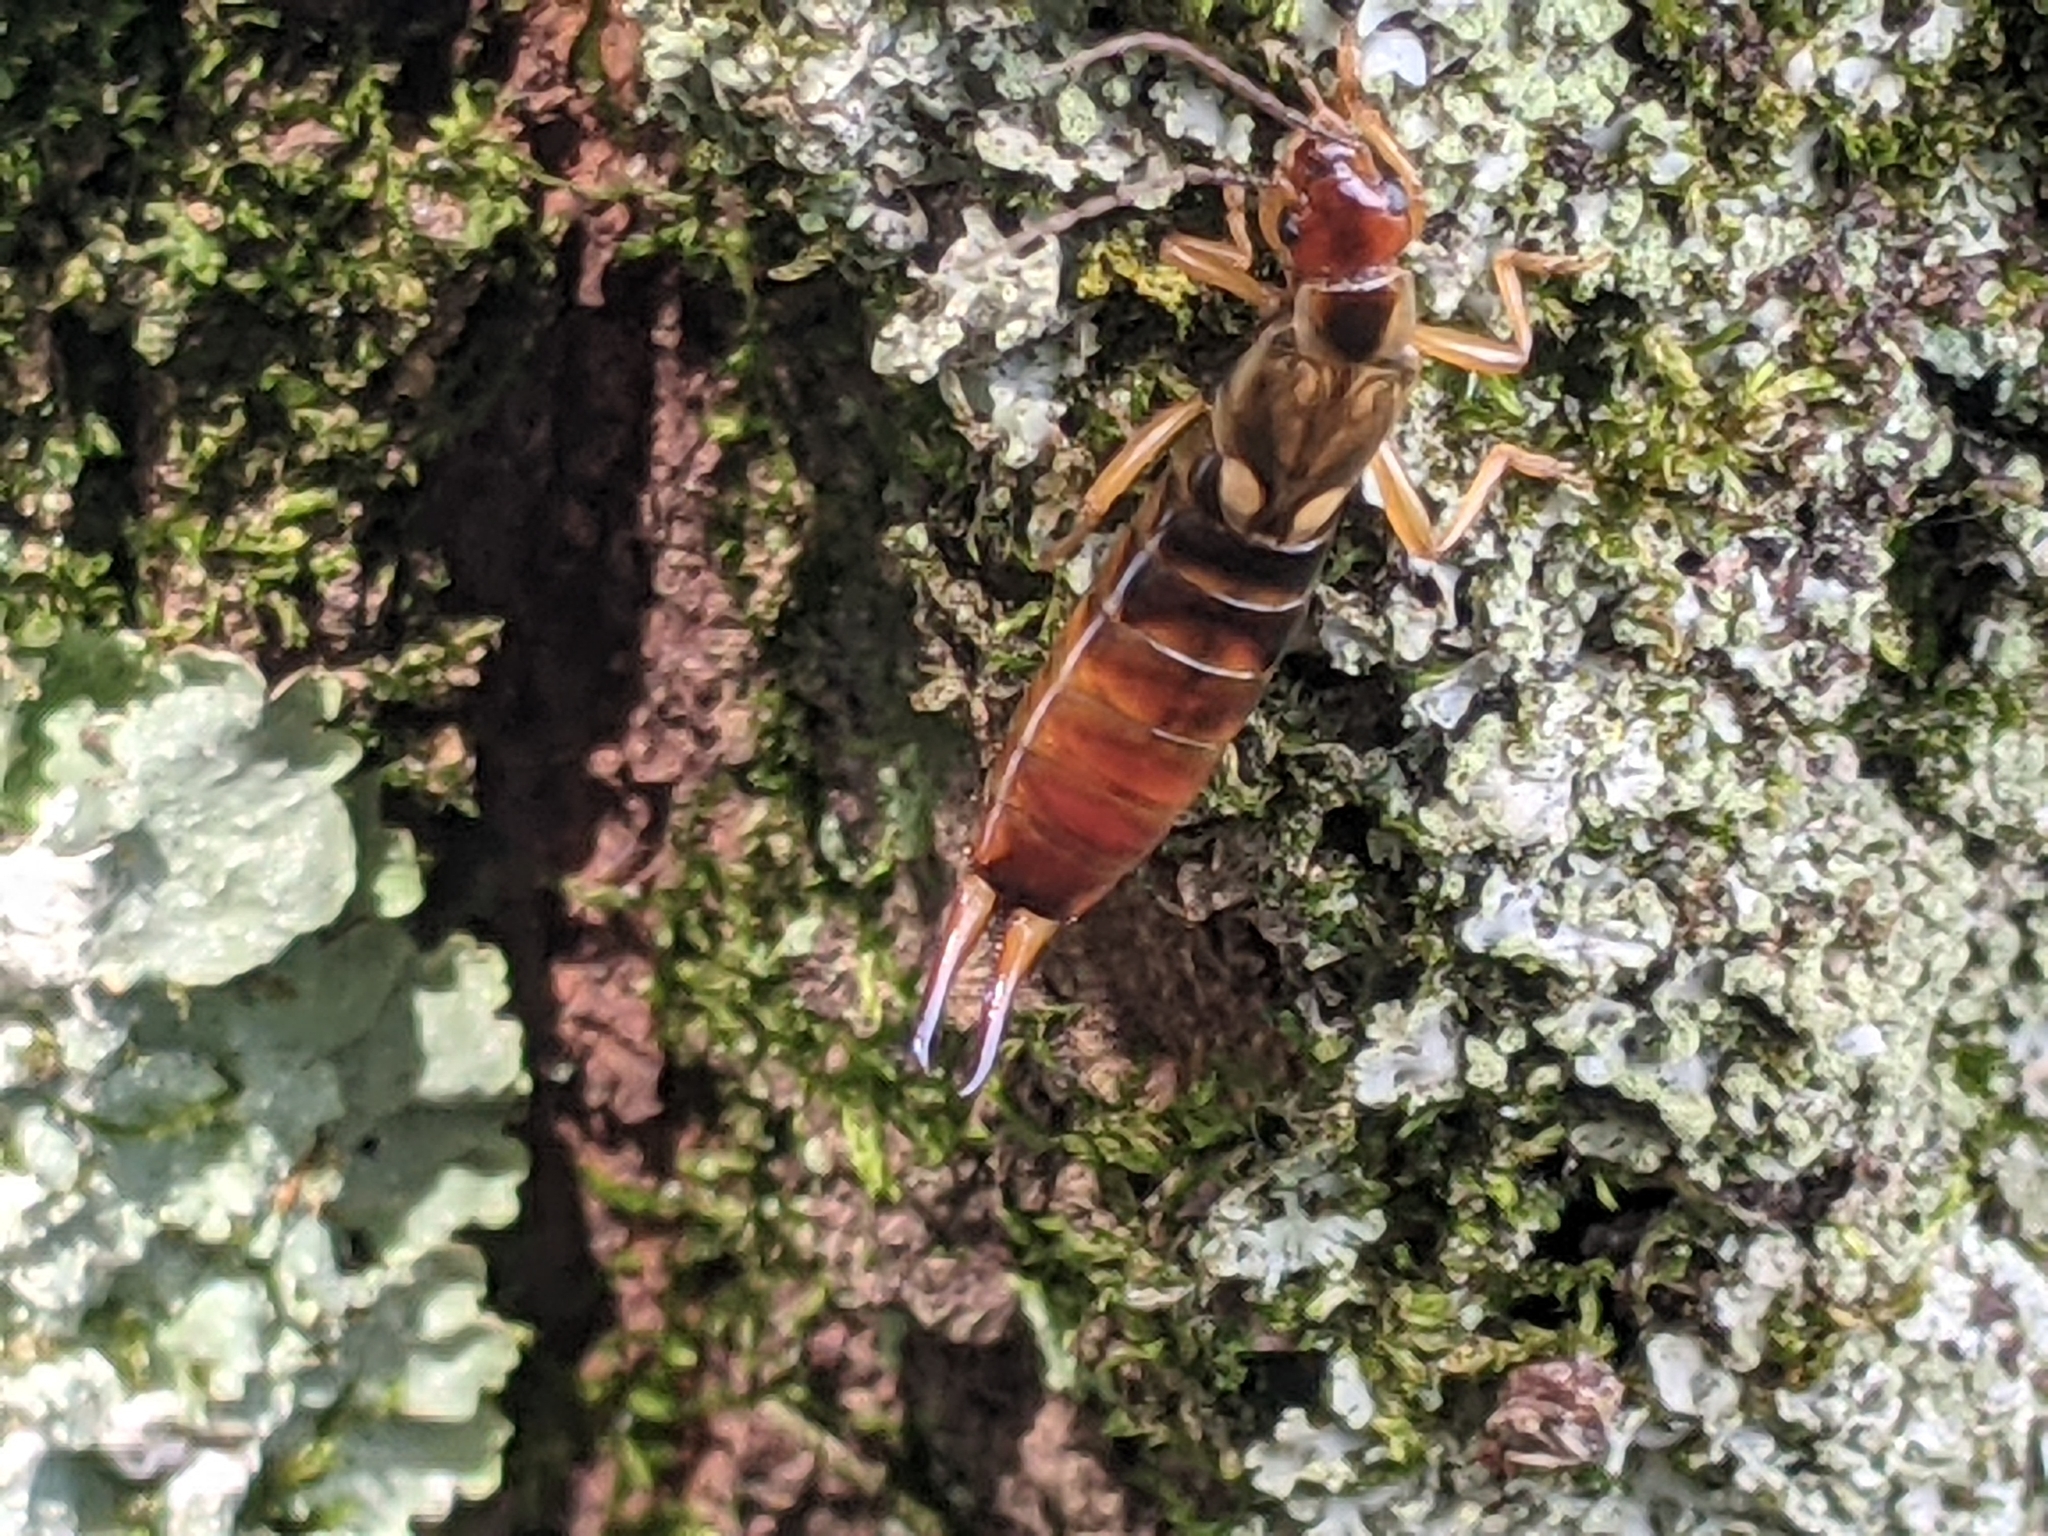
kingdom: Animalia
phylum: Arthropoda
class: Insecta
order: Dermaptera
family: Forficulidae
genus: Forficula
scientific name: Forficula
